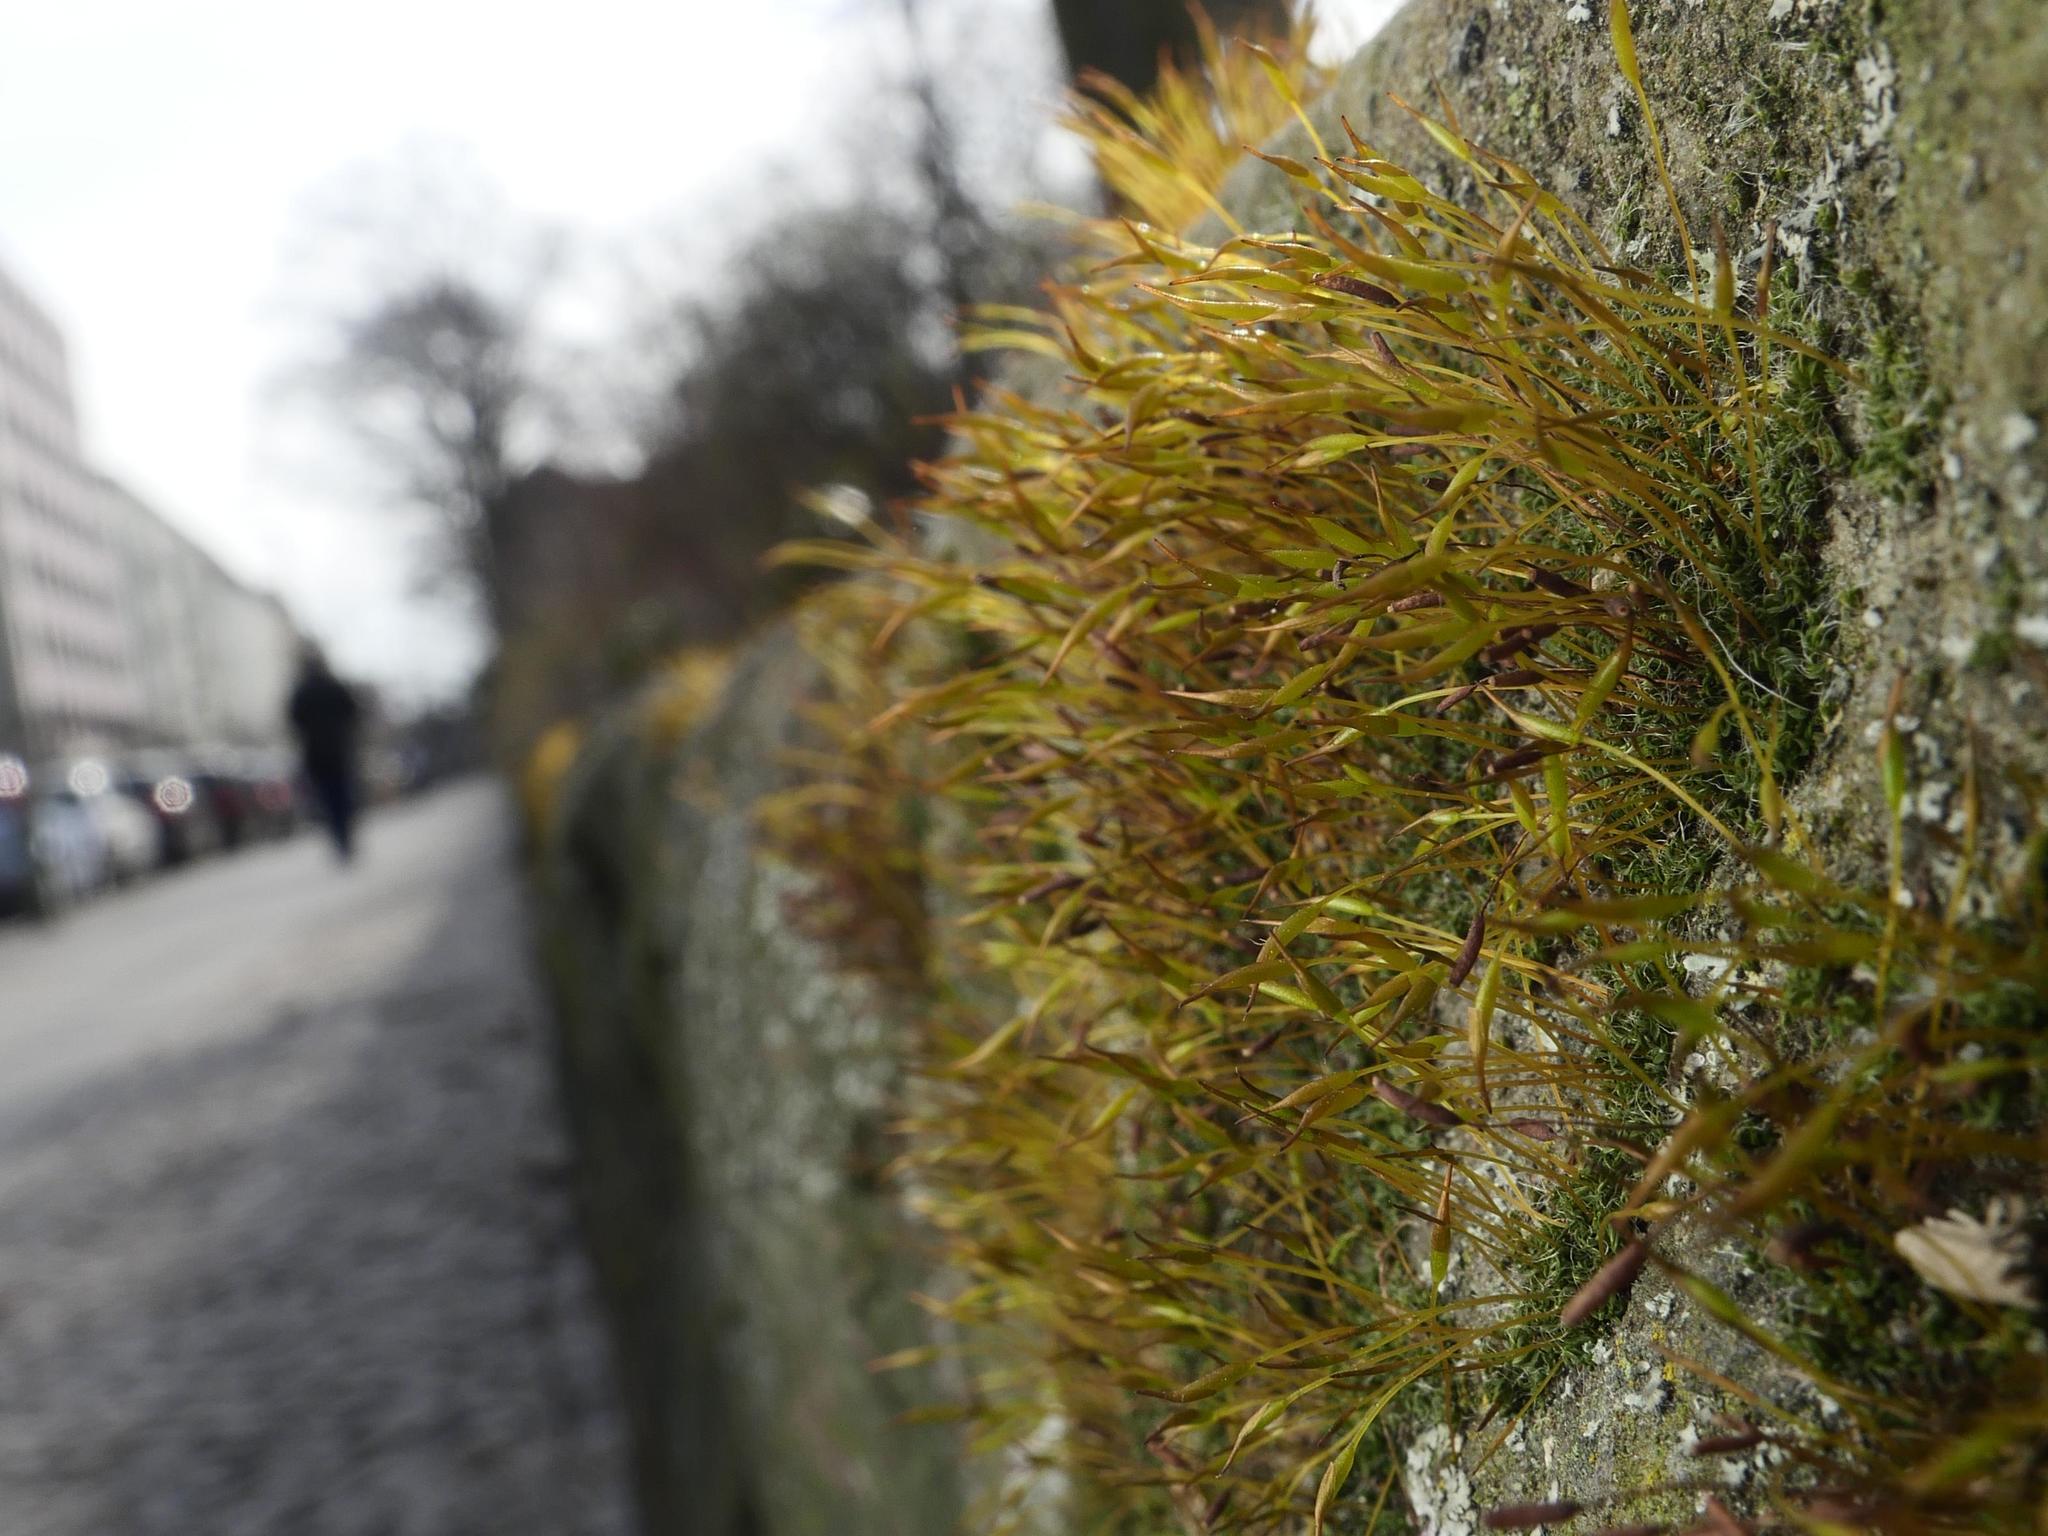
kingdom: Plantae
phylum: Bryophyta
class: Bryopsida
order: Pottiales
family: Pottiaceae
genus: Tortula
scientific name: Tortula muralis
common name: Wall screw-moss
